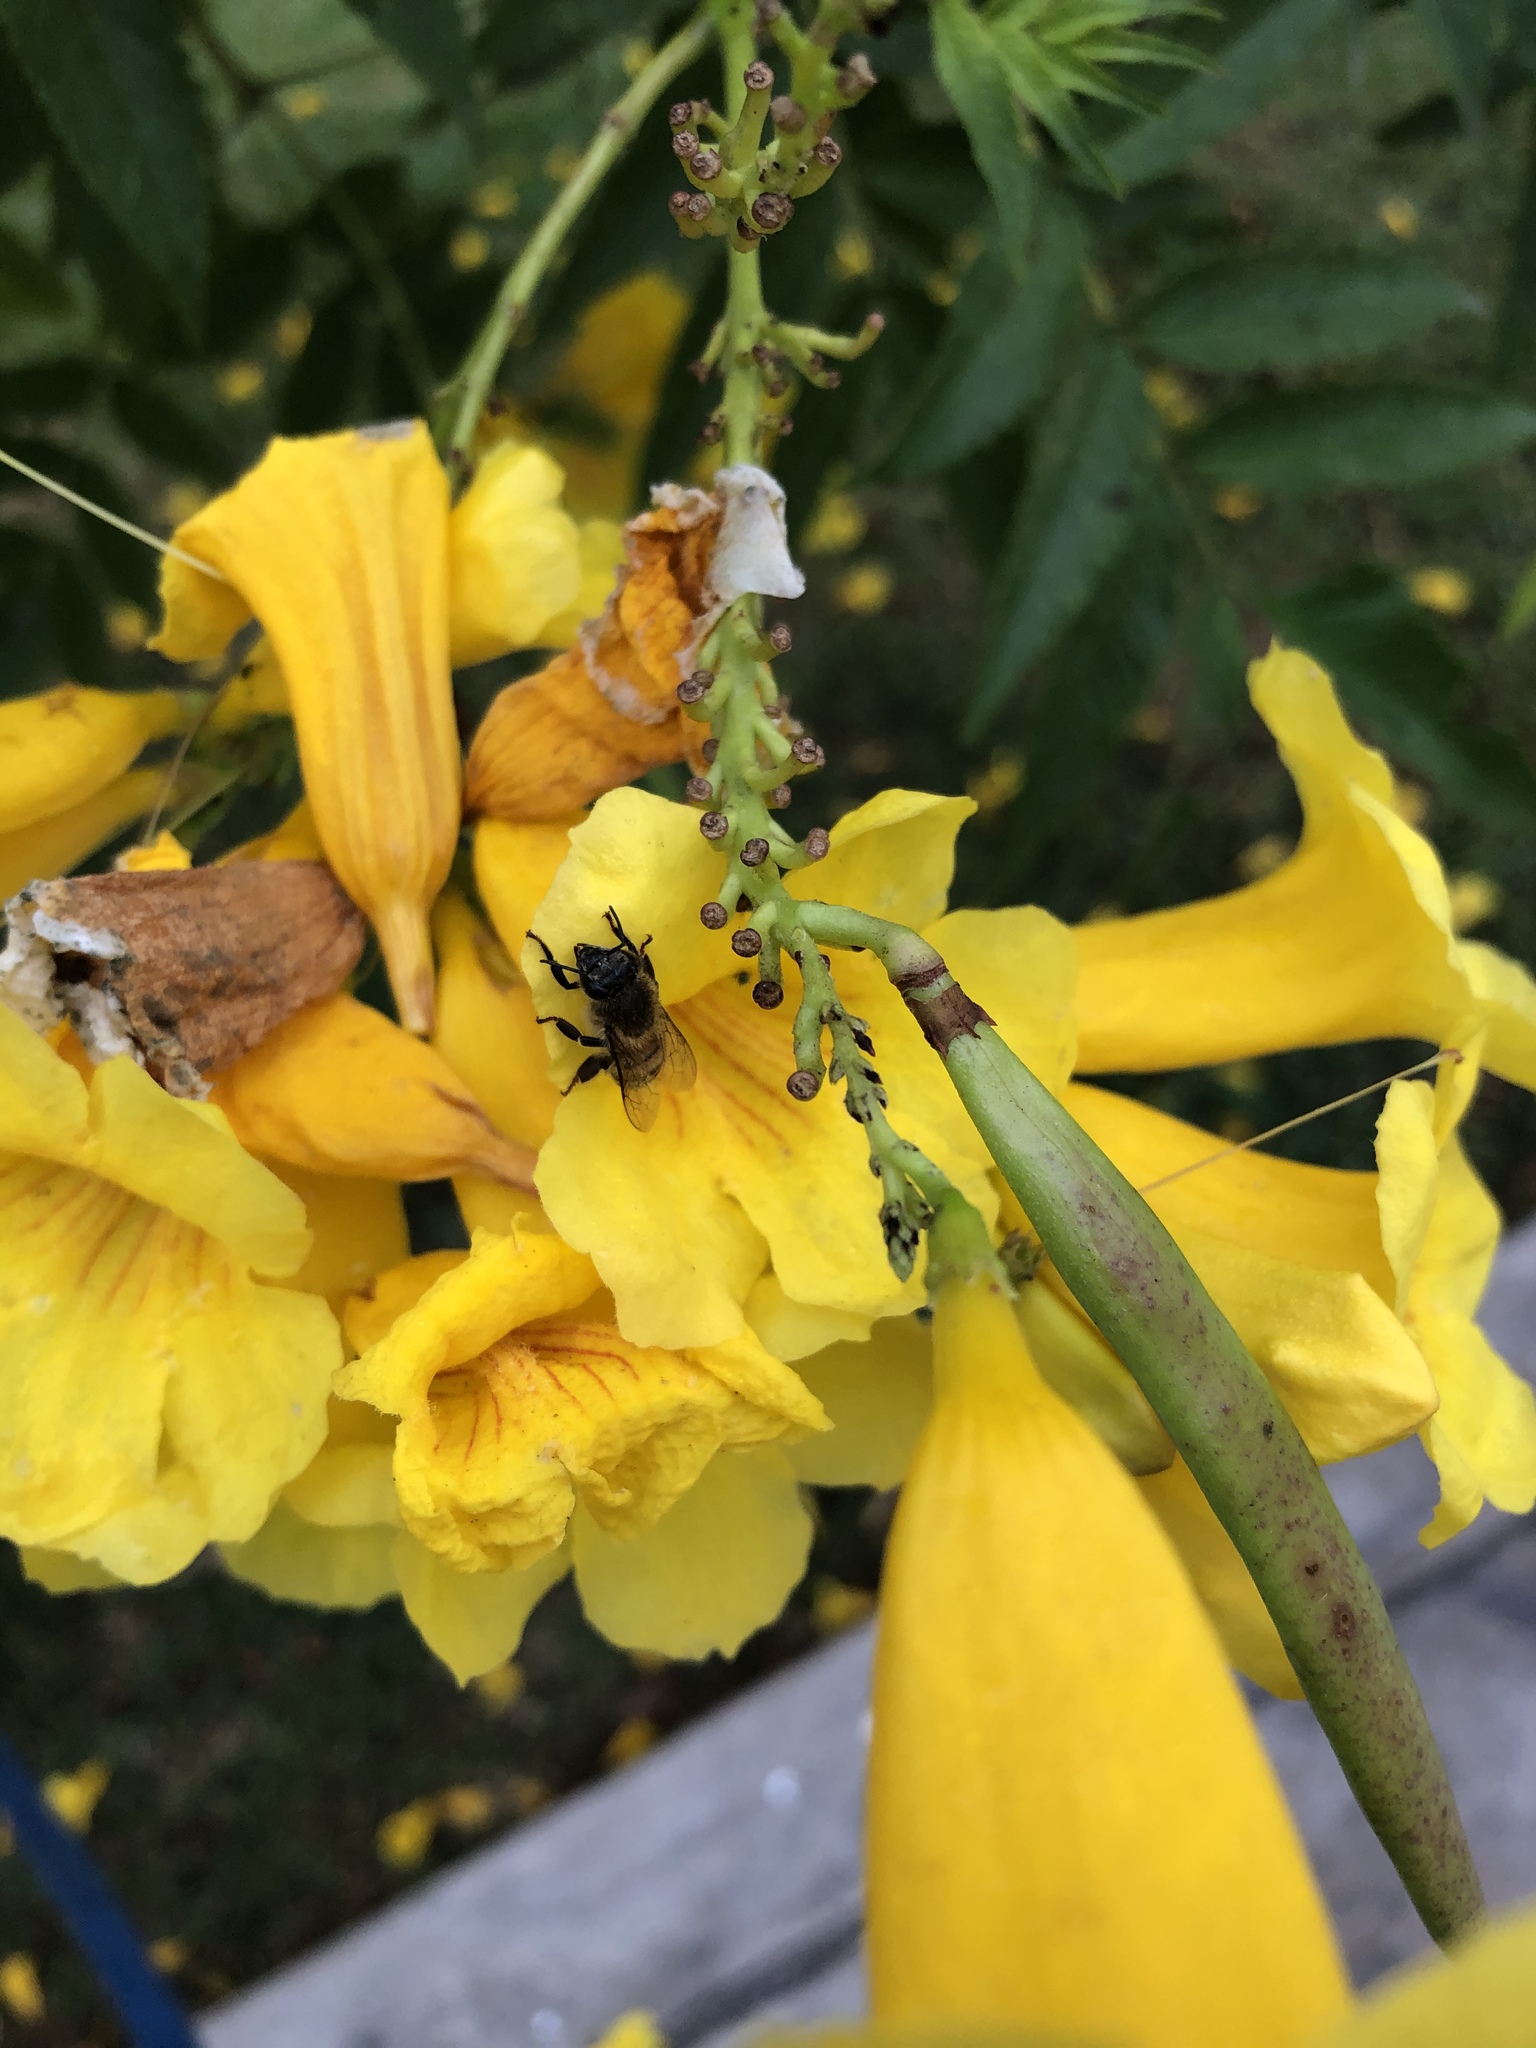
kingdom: Animalia
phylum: Arthropoda
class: Insecta
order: Hymenoptera
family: Apidae
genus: Apis
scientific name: Apis mellifera
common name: Honey bee
